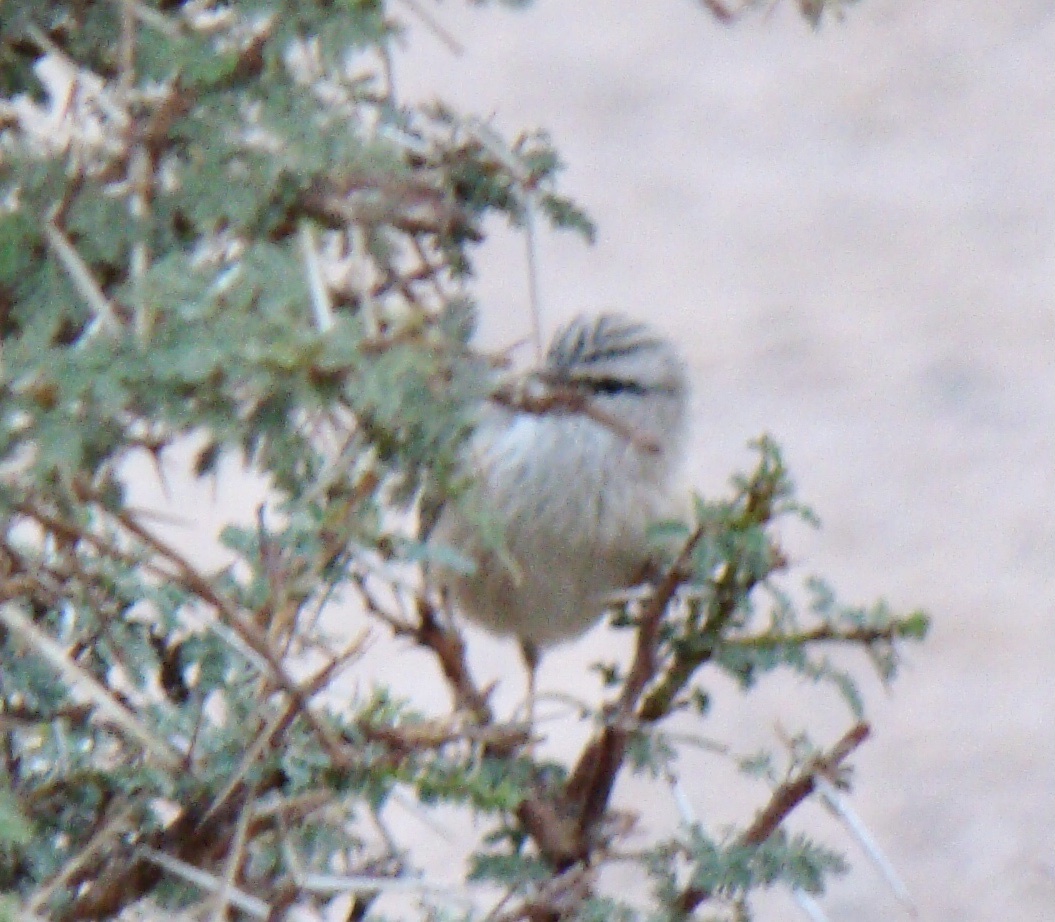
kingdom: Animalia
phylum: Chordata
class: Aves
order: Passeriformes
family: Scotocercidae
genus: Scotocerca
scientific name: Scotocerca inquieta
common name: Scrub warbler
